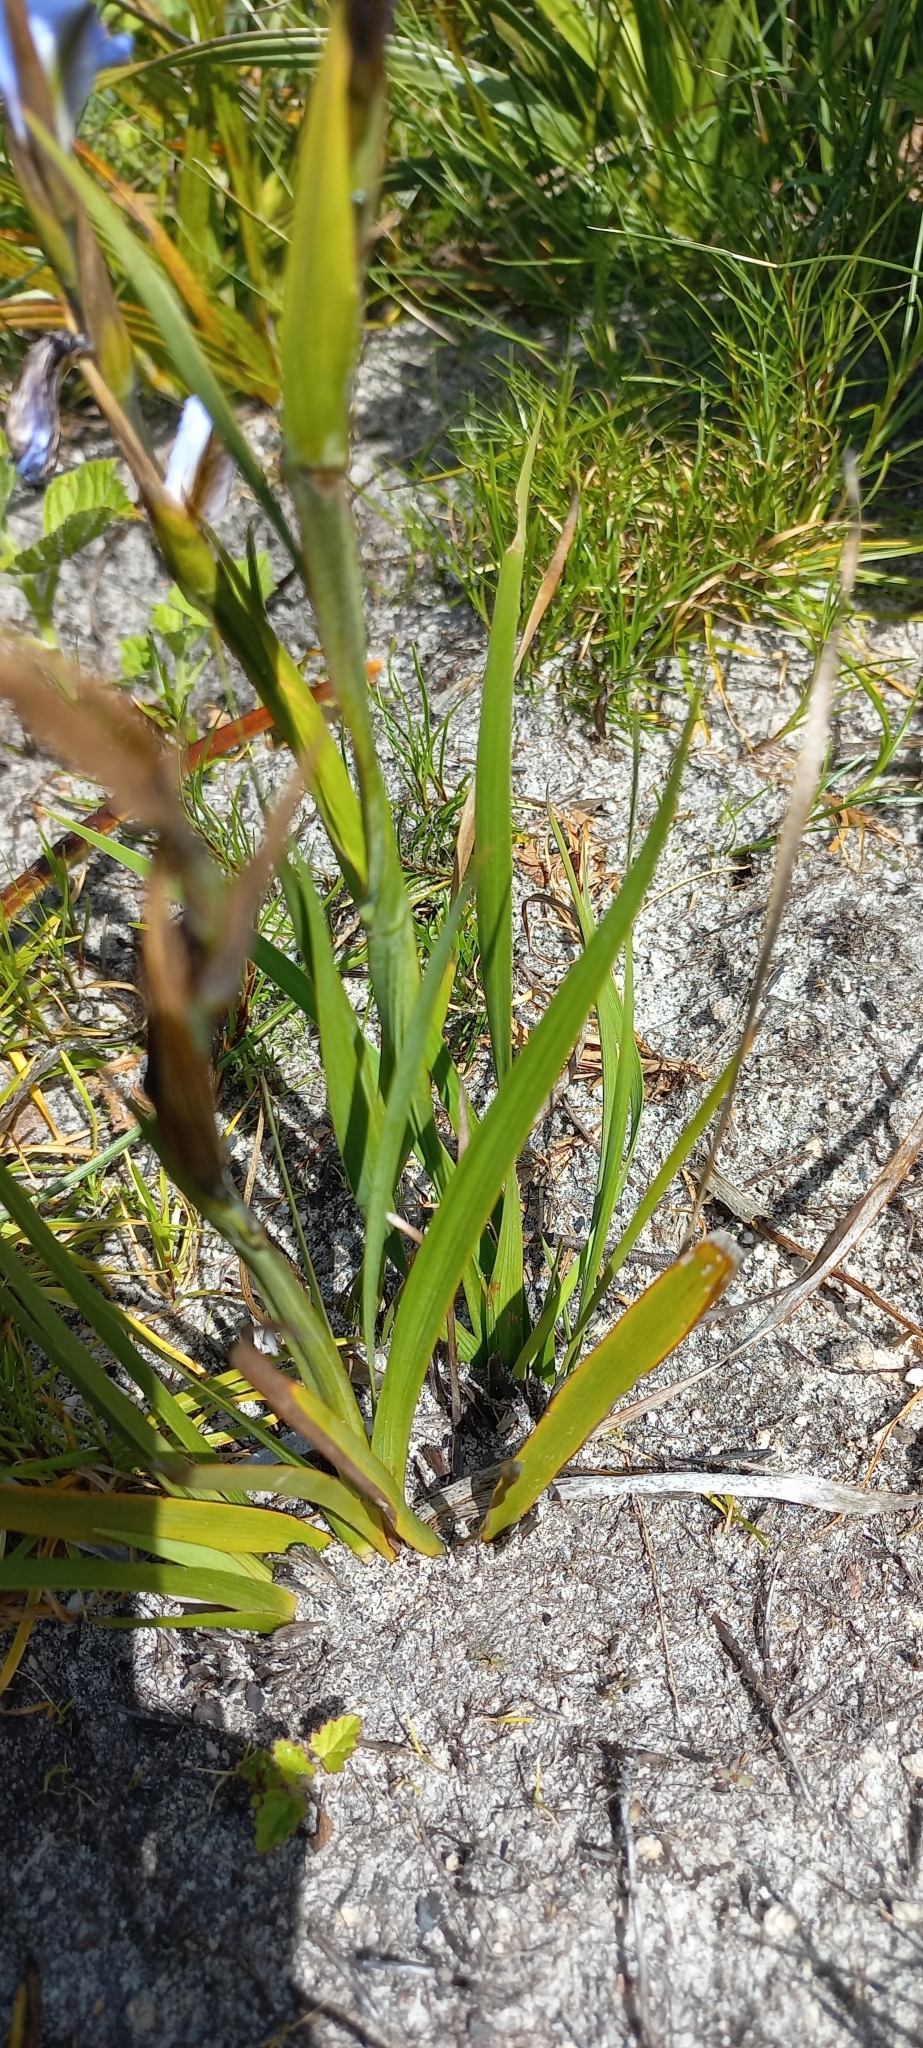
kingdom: Plantae
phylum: Tracheophyta
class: Liliopsida
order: Asparagales
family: Iridaceae
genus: Aristea
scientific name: Aristea spiralis
